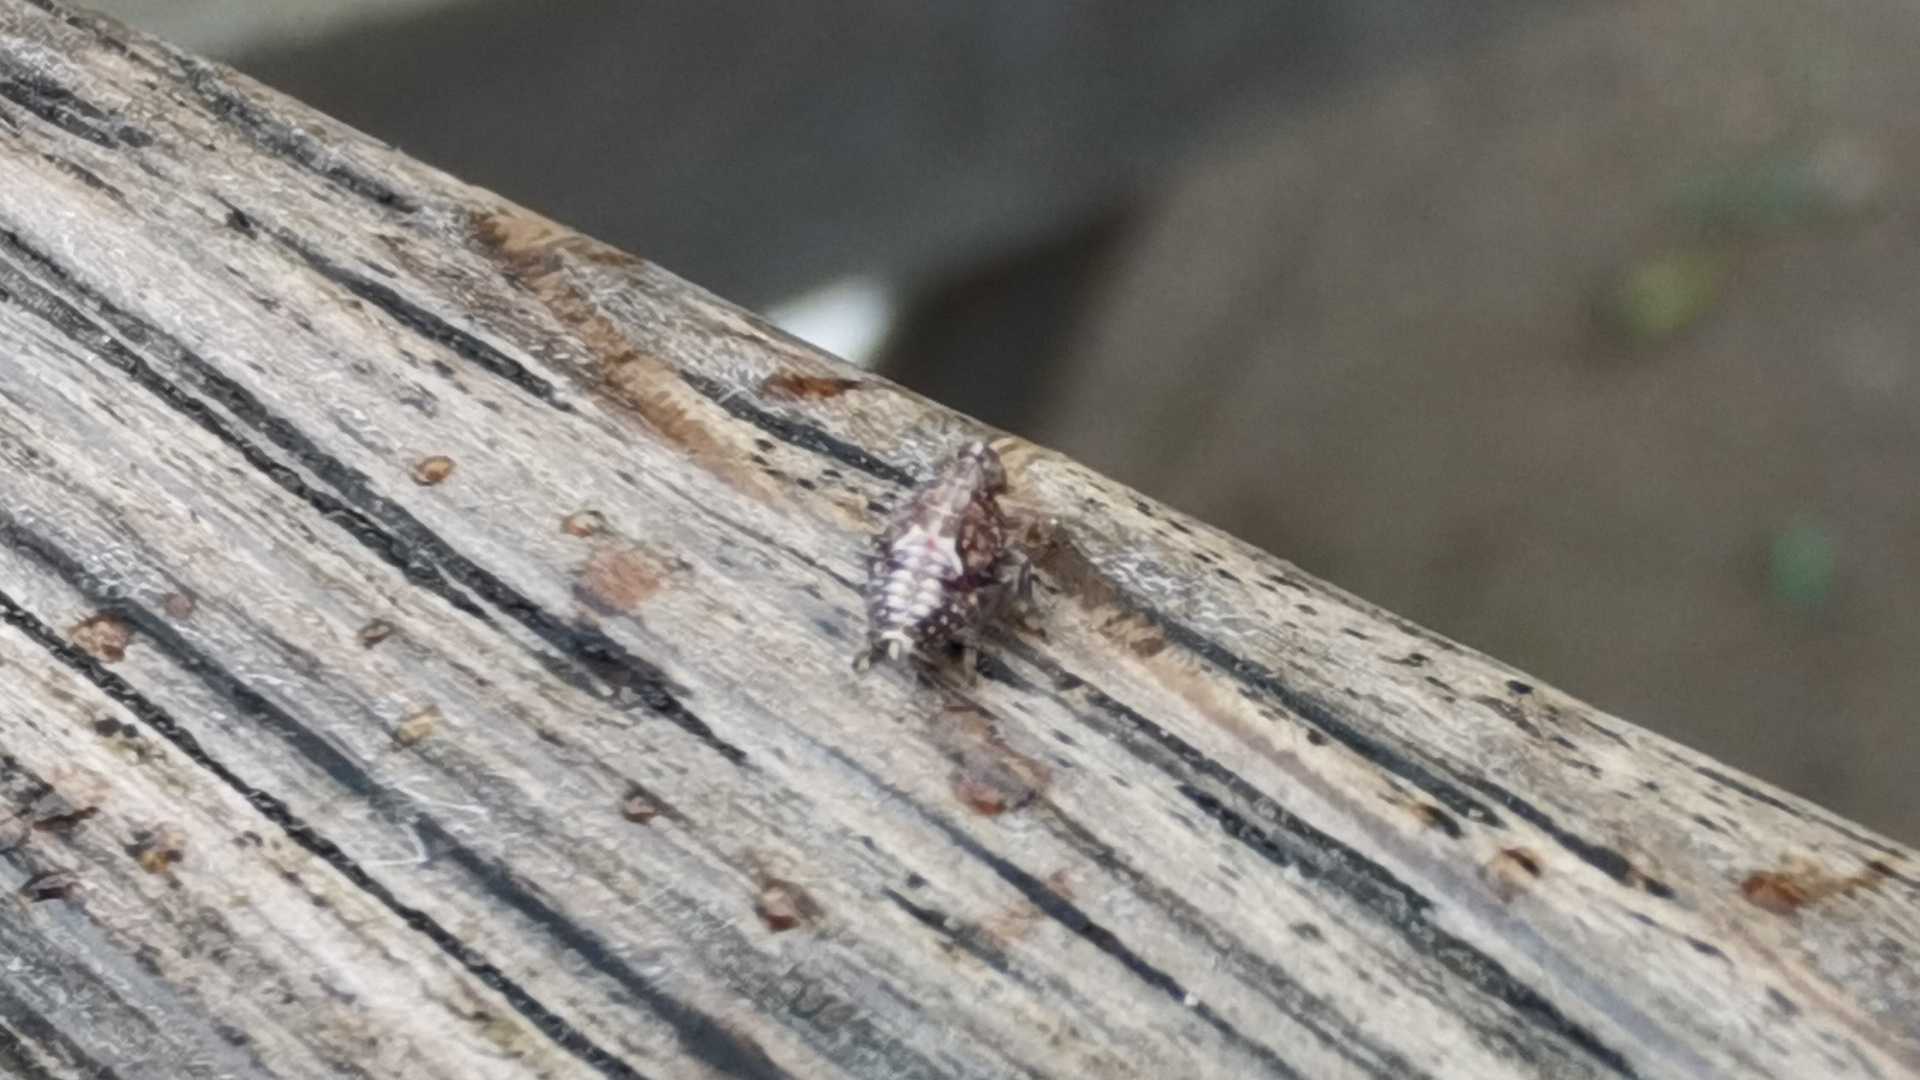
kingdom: Animalia
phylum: Arthropoda
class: Insecta
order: Hemiptera
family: Issidae
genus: Issus
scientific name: Issus
